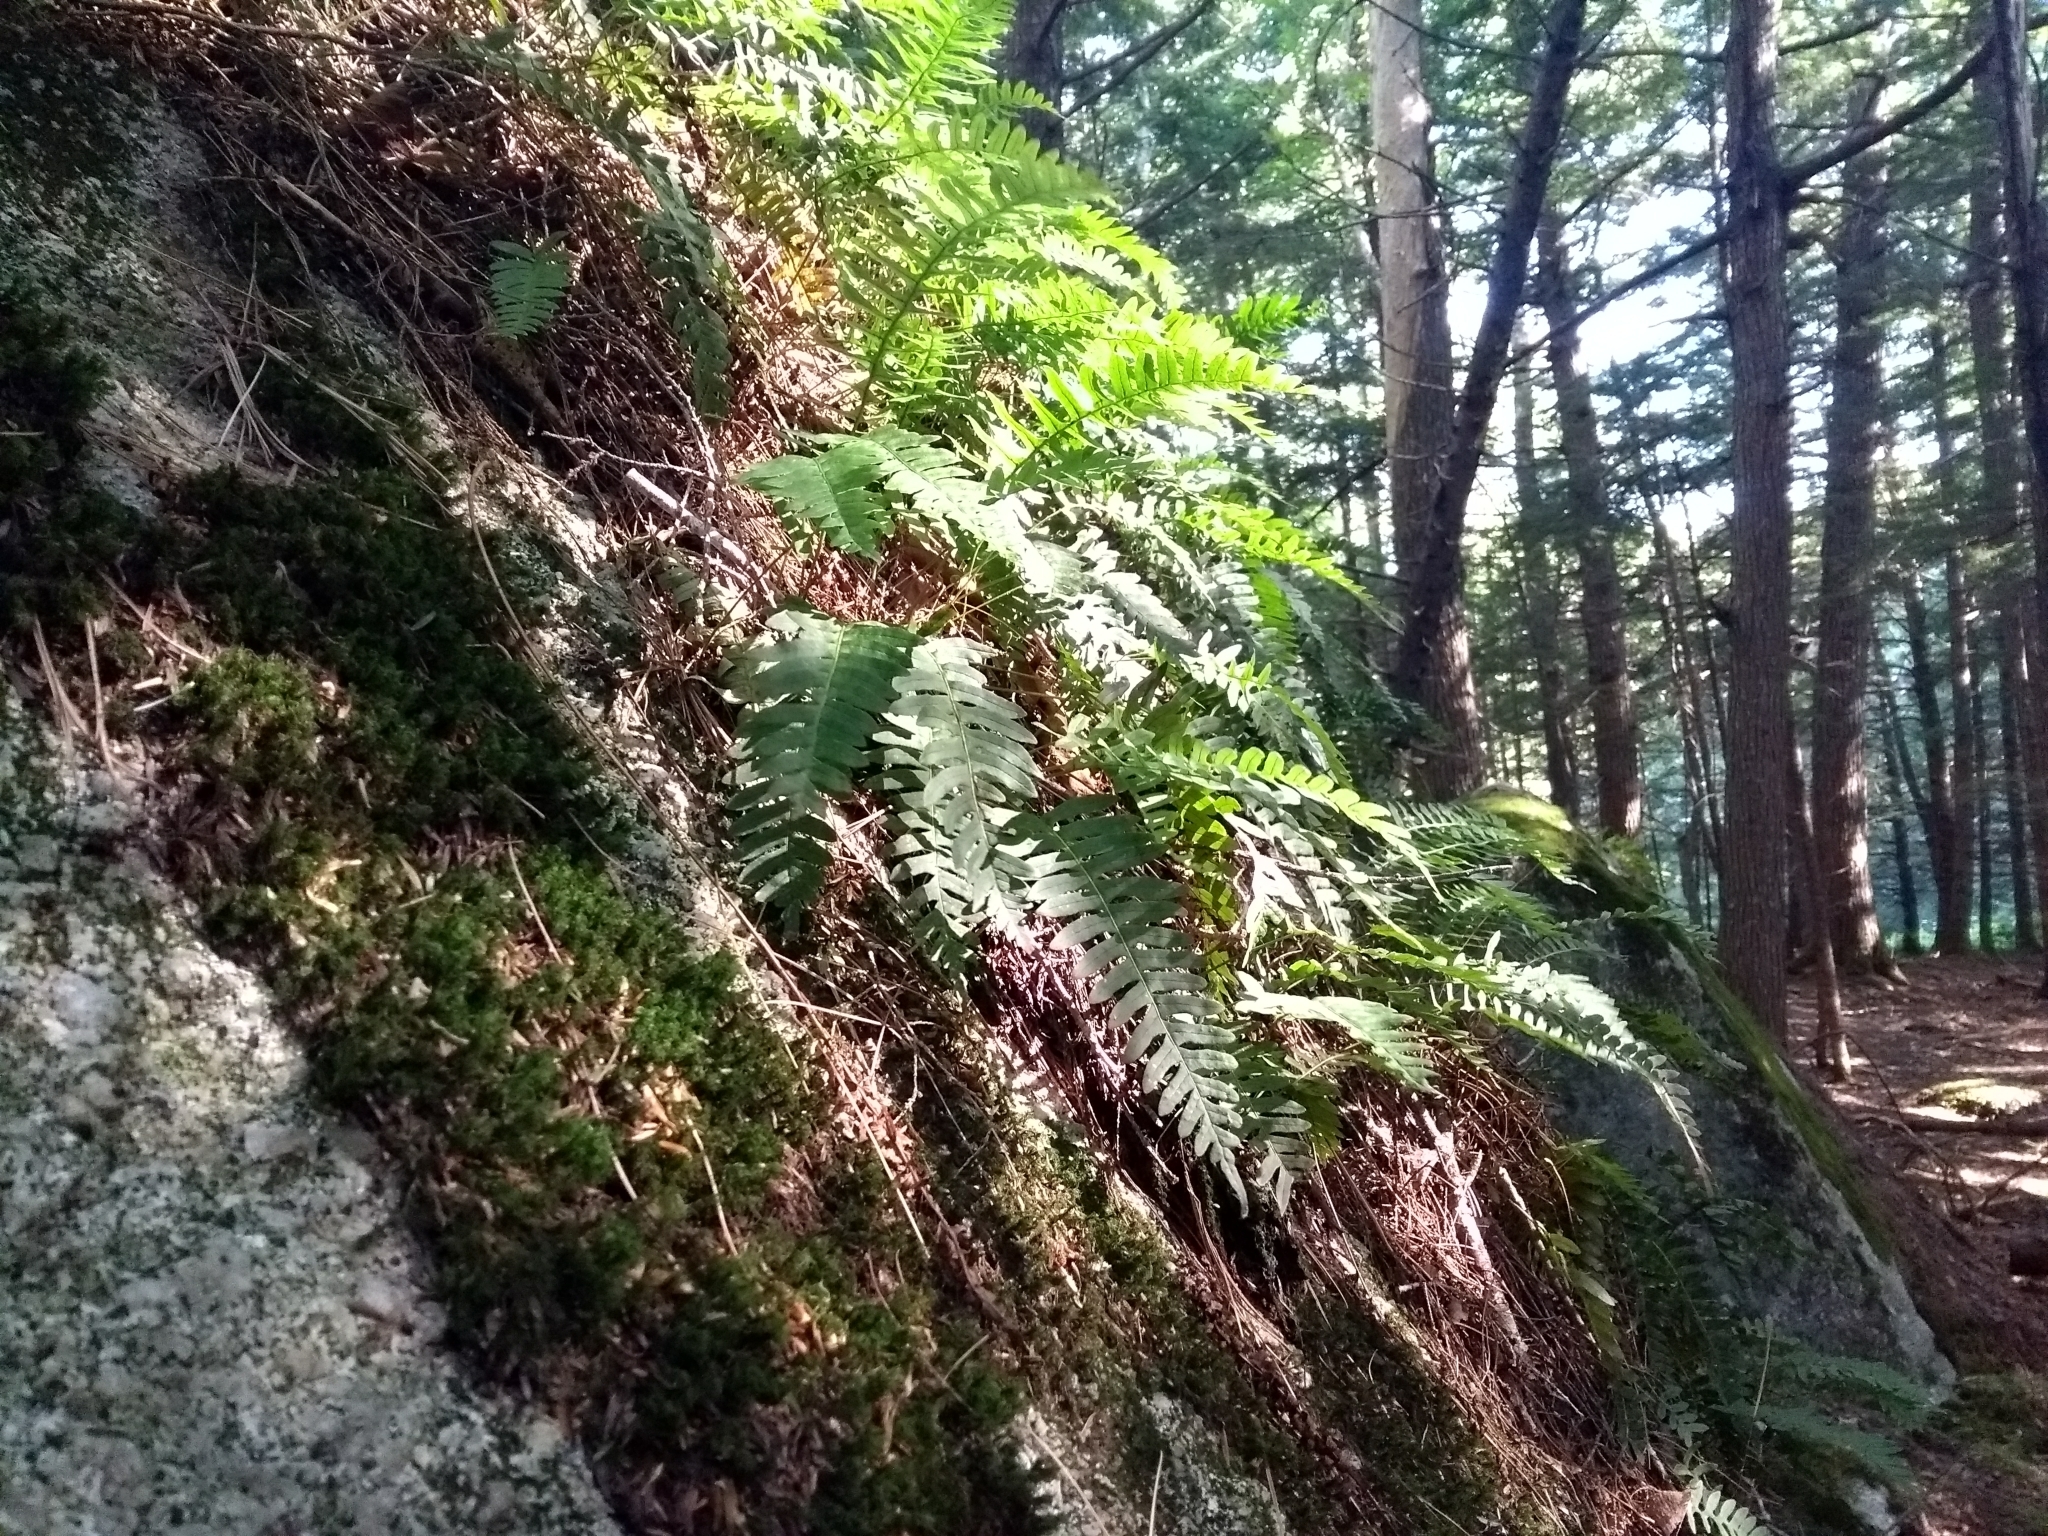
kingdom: Plantae
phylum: Tracheophyta
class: Polypodiopsida
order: Polypodiales
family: Polypodiaceae
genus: Polypodium
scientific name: Polypodium virginianum
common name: American wall fern
